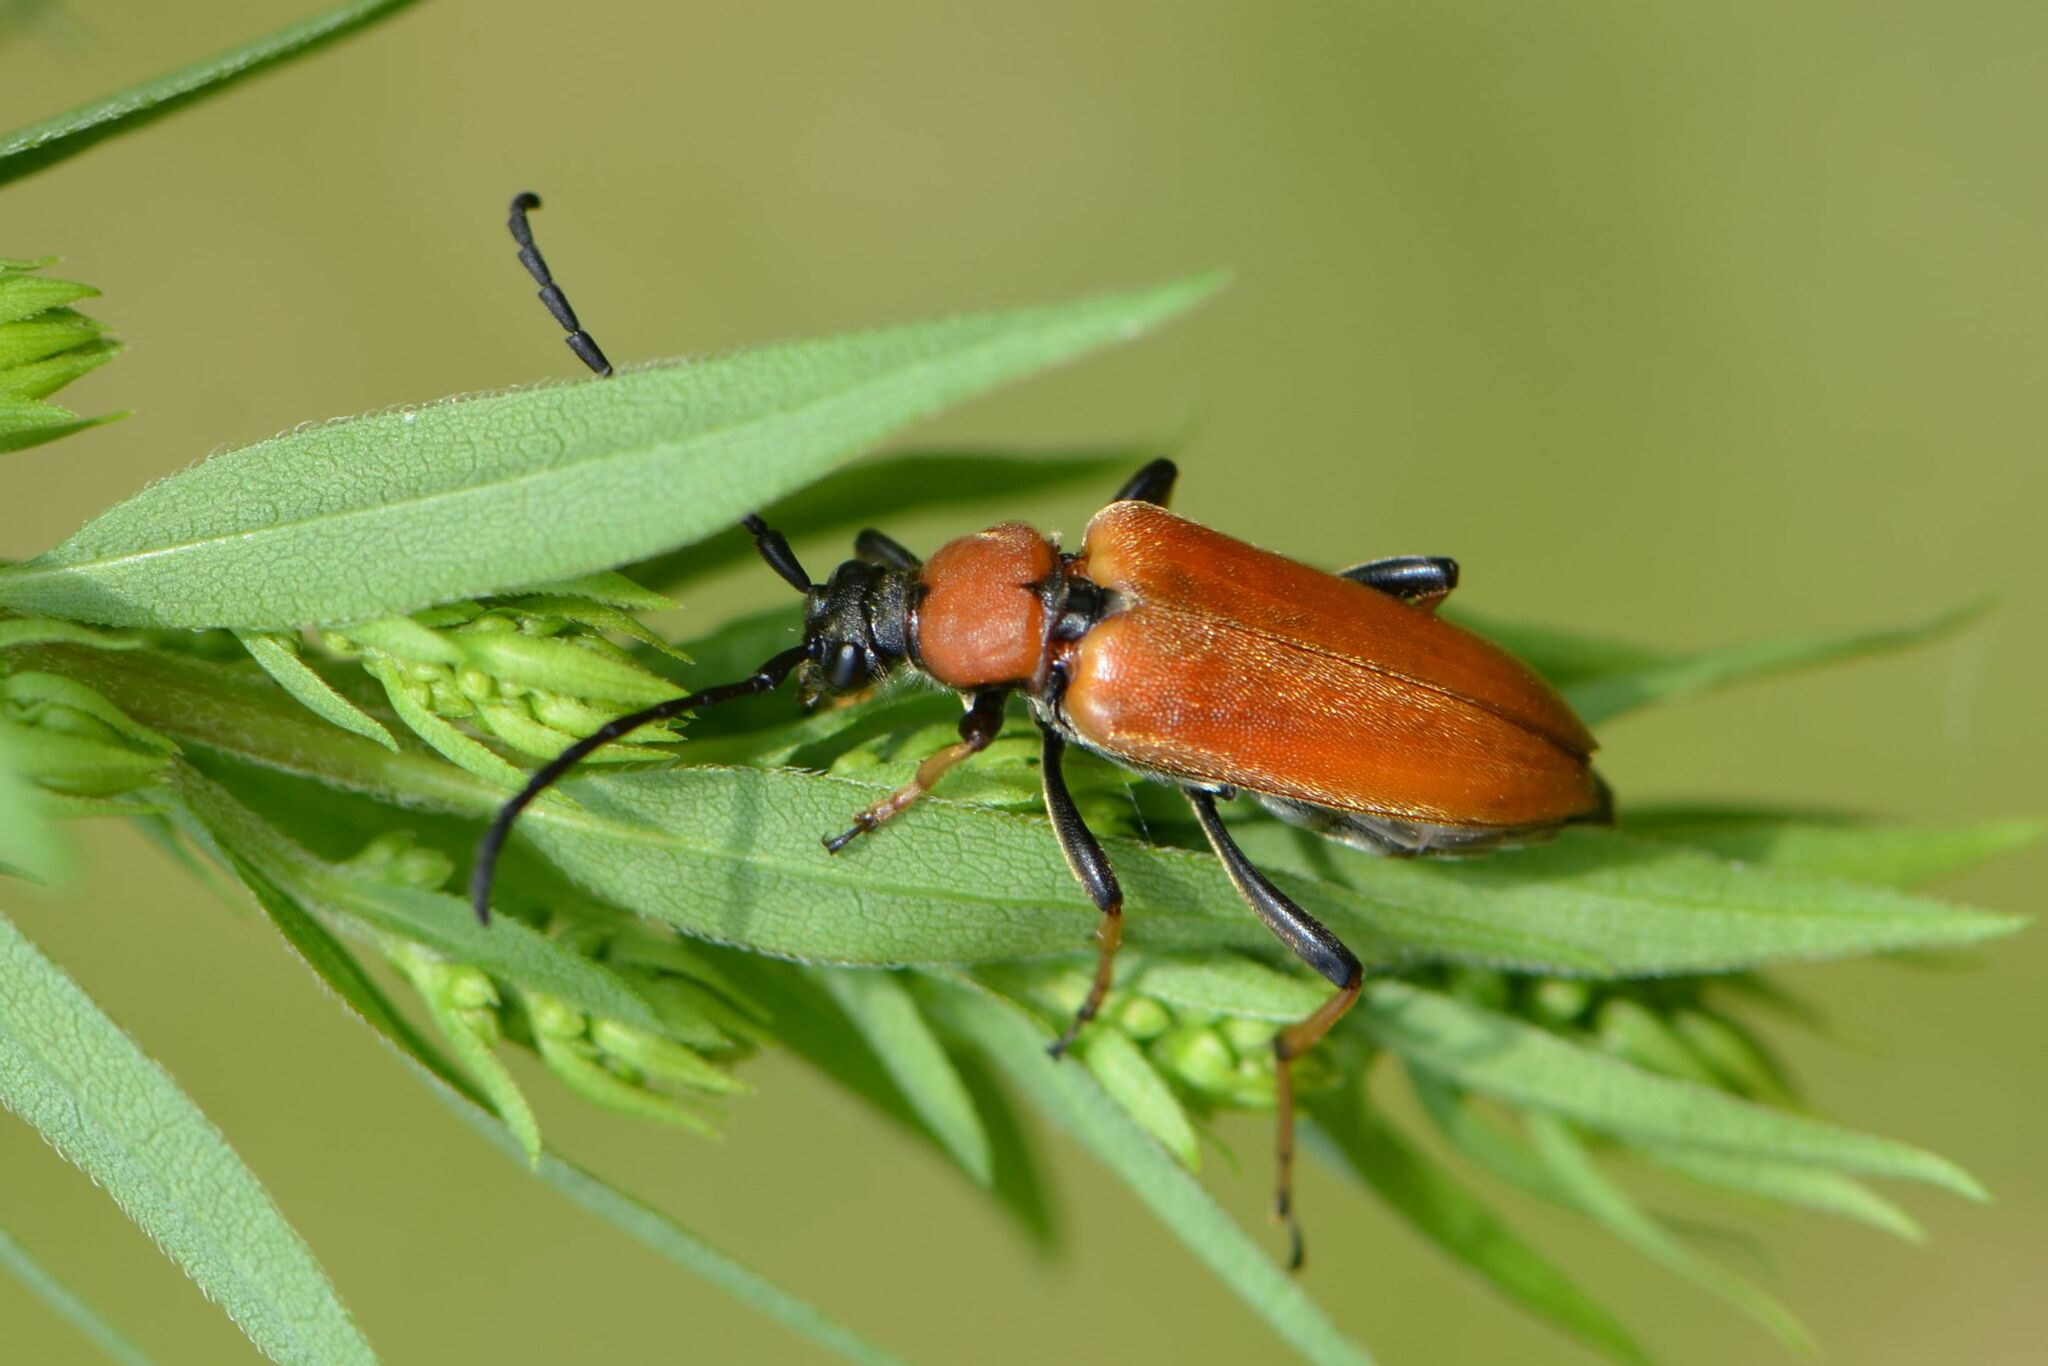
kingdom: Animalia
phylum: Arthropoda
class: Insecta
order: Coleoptera
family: Cerambycidae
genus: Stictoleptura
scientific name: Stictoleptura rubra
